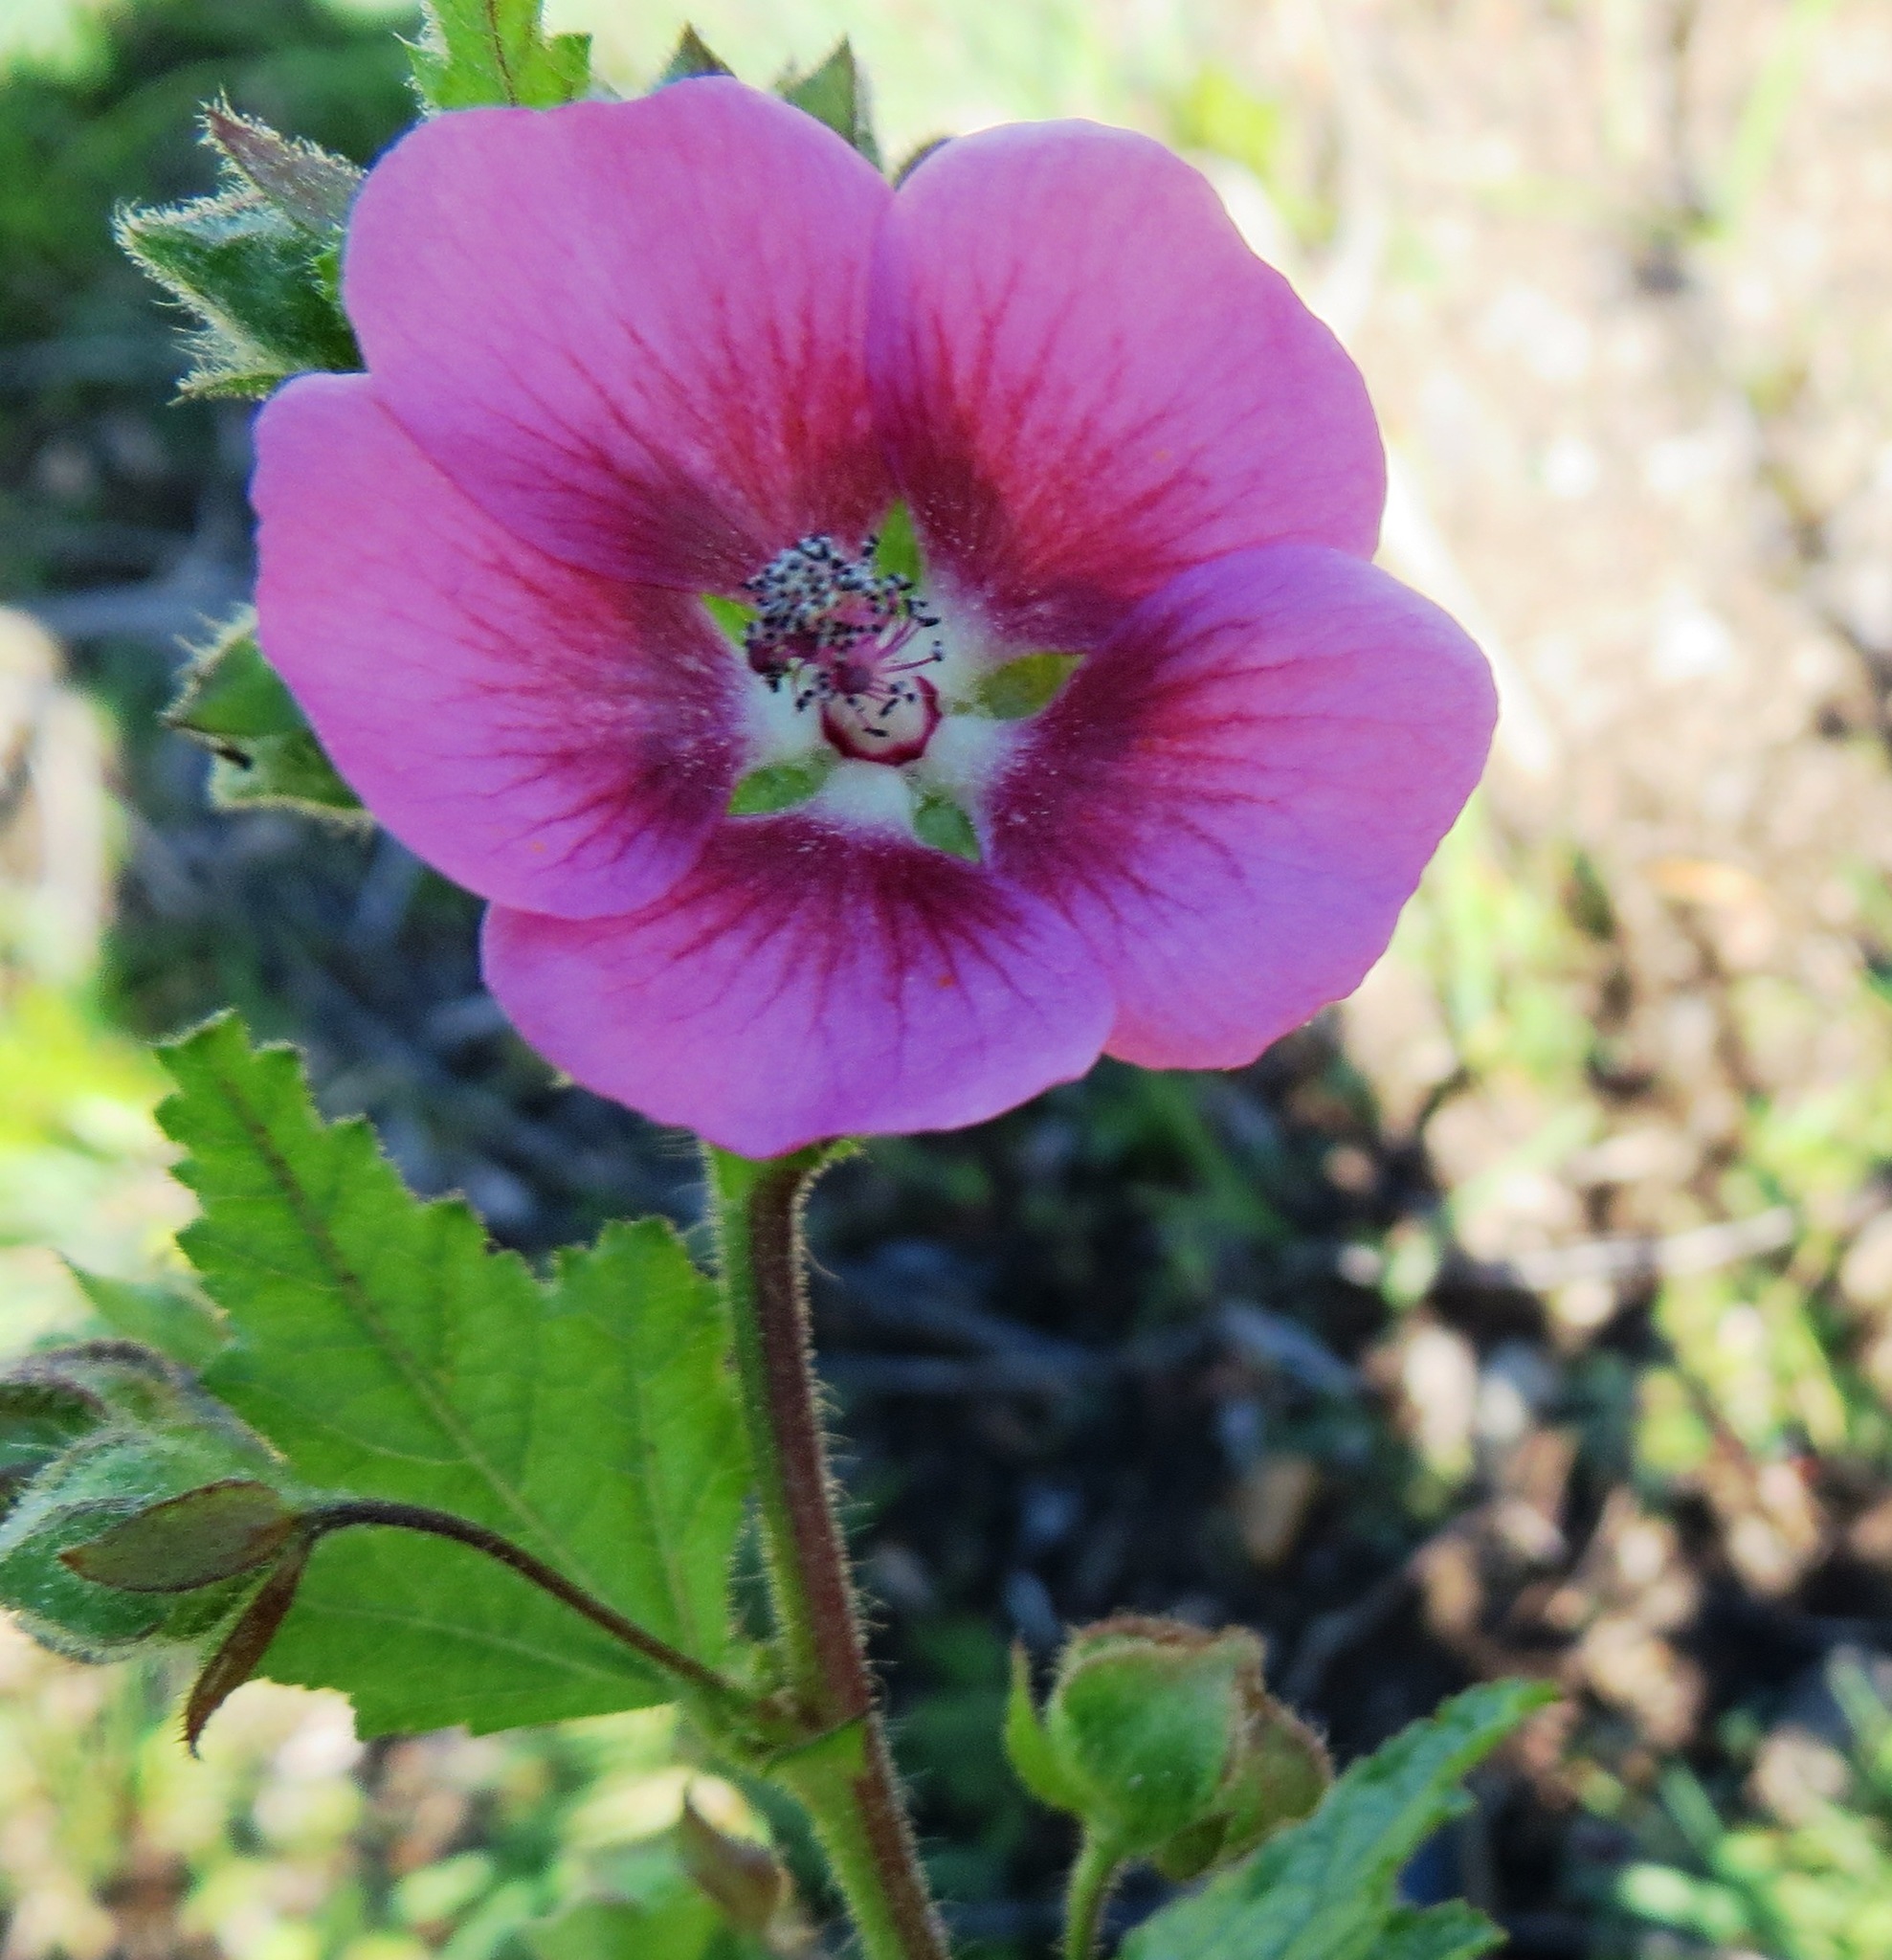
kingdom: Plantae
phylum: Tracheophyta
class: Magnoliopsida
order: Malvales
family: Malvaceae
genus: Anisodontea
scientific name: Anisodontea scabrosa
